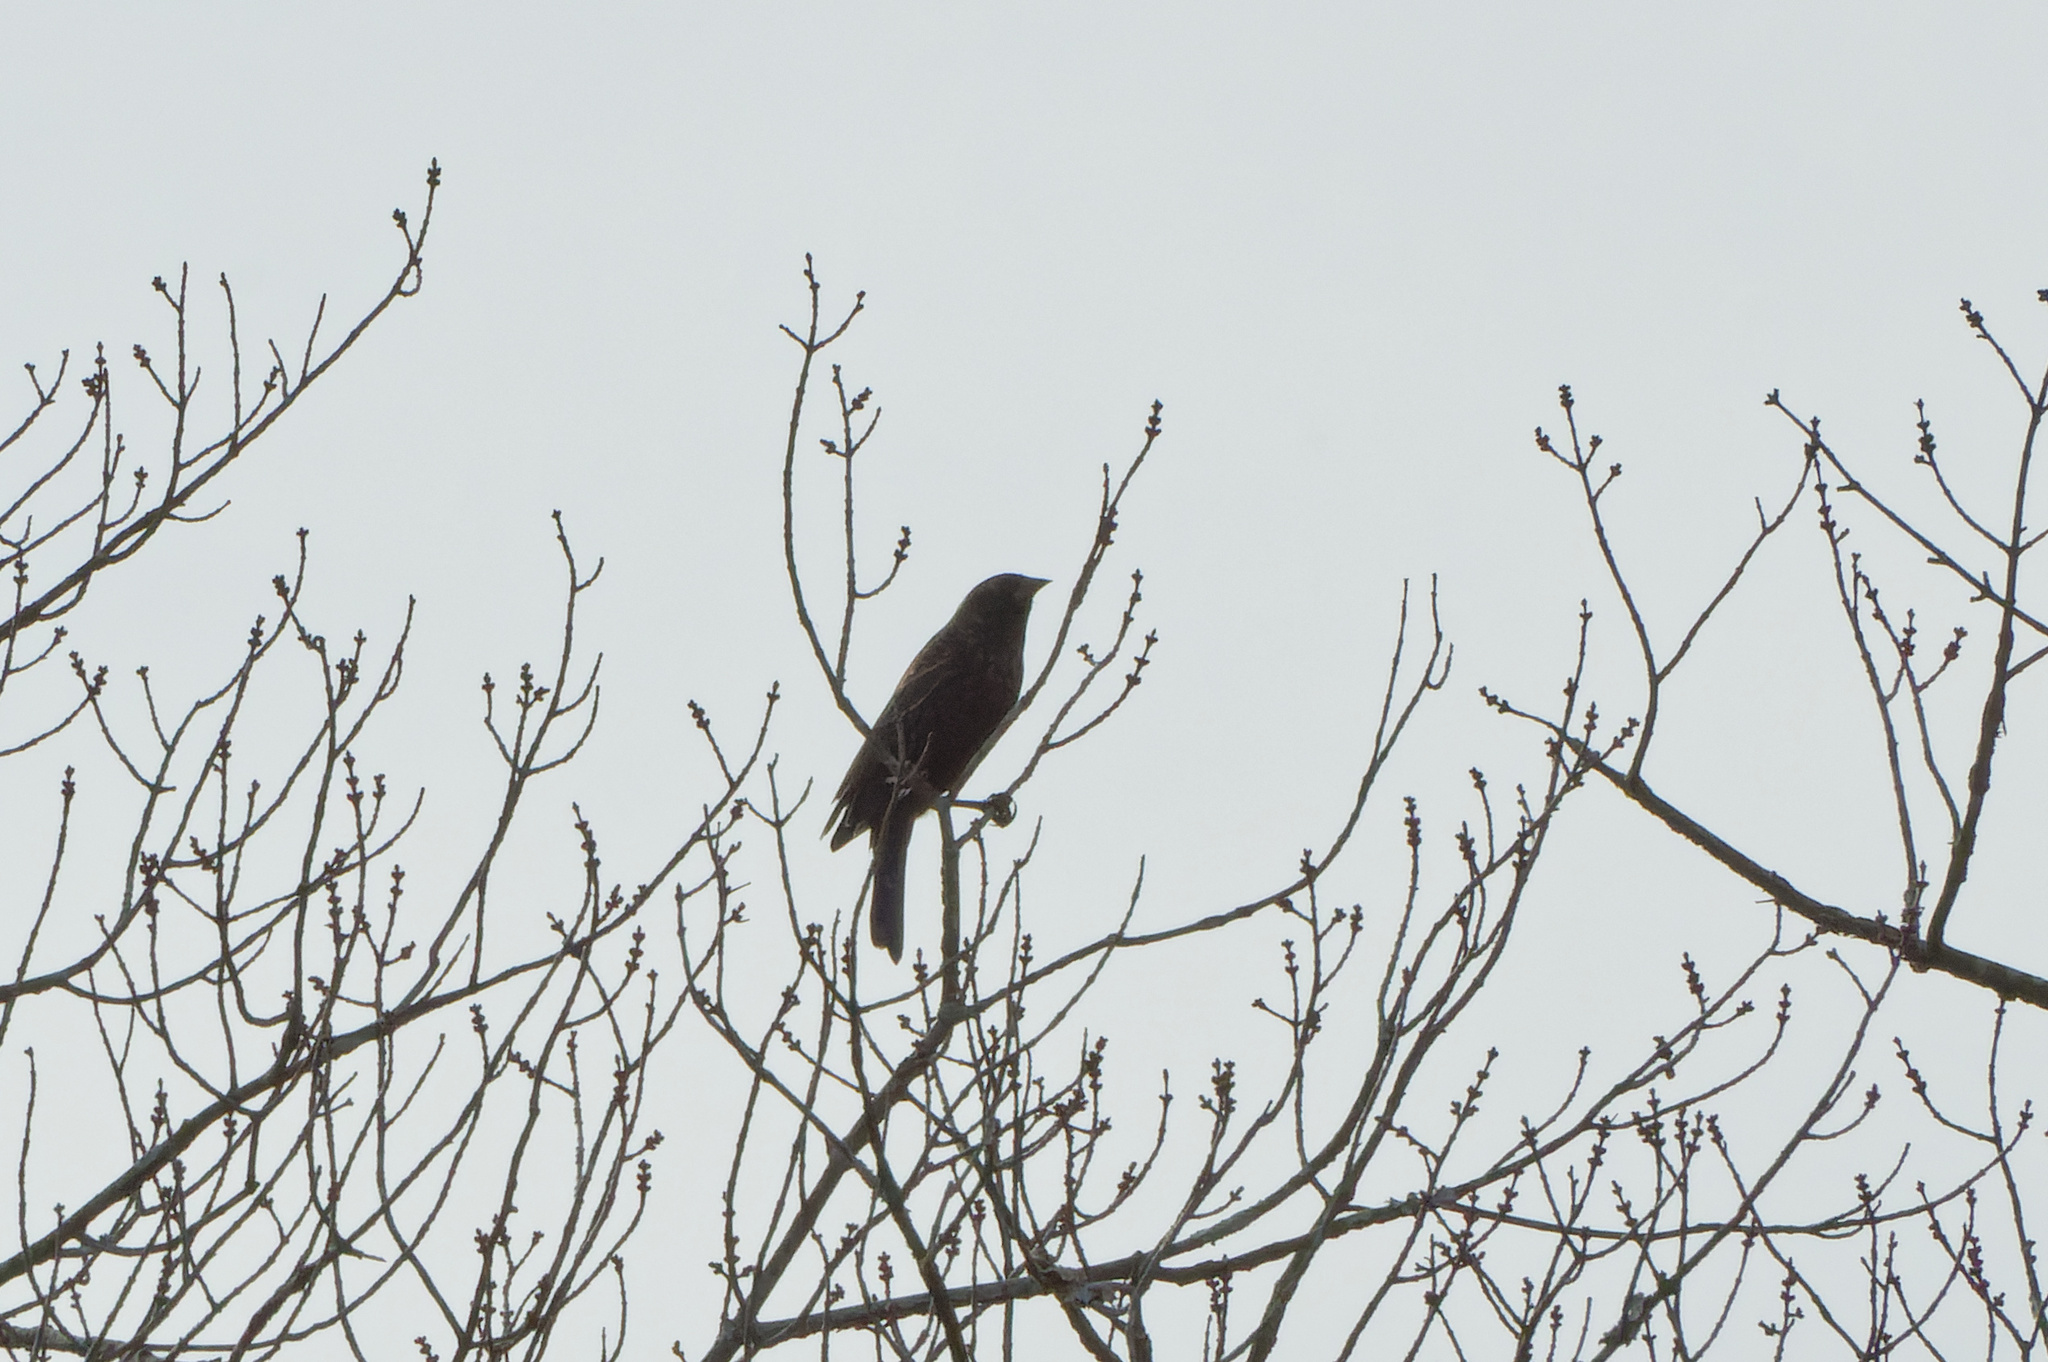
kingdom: Animalia
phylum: Chordata
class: Aves
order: Passeriformes
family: Icteridae
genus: Agelaius
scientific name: Agelaius phoeniceus
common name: Red-winged blackbird
